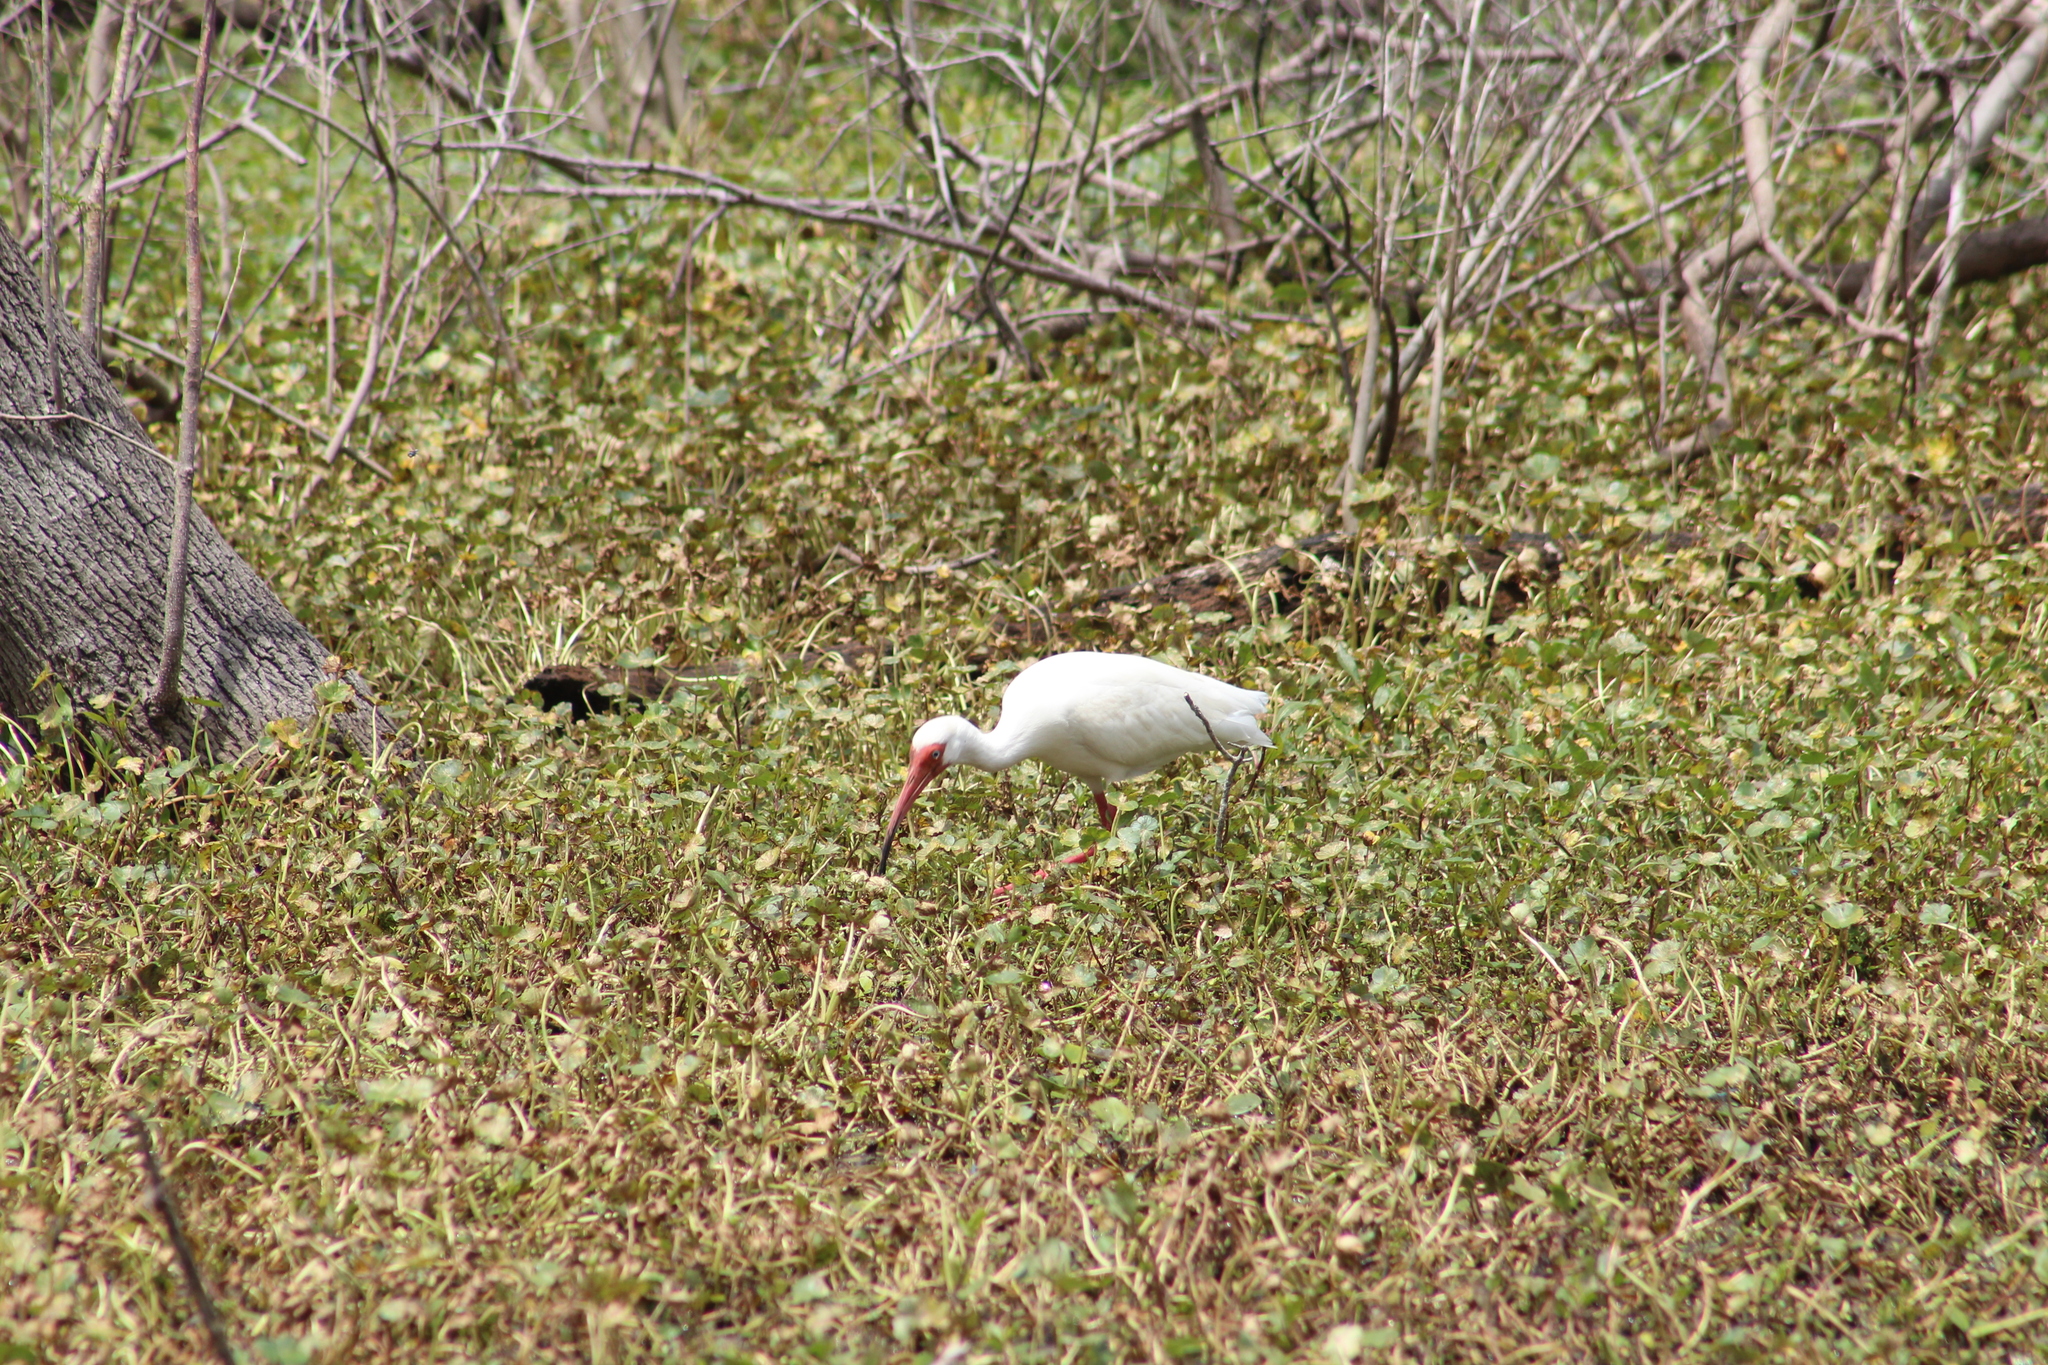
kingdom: Animalia
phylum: Chordata
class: Aves
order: Pelecaniformes
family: Threskiornithidae
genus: Eudocimus
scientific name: Eudocimus albus
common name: White ibis
